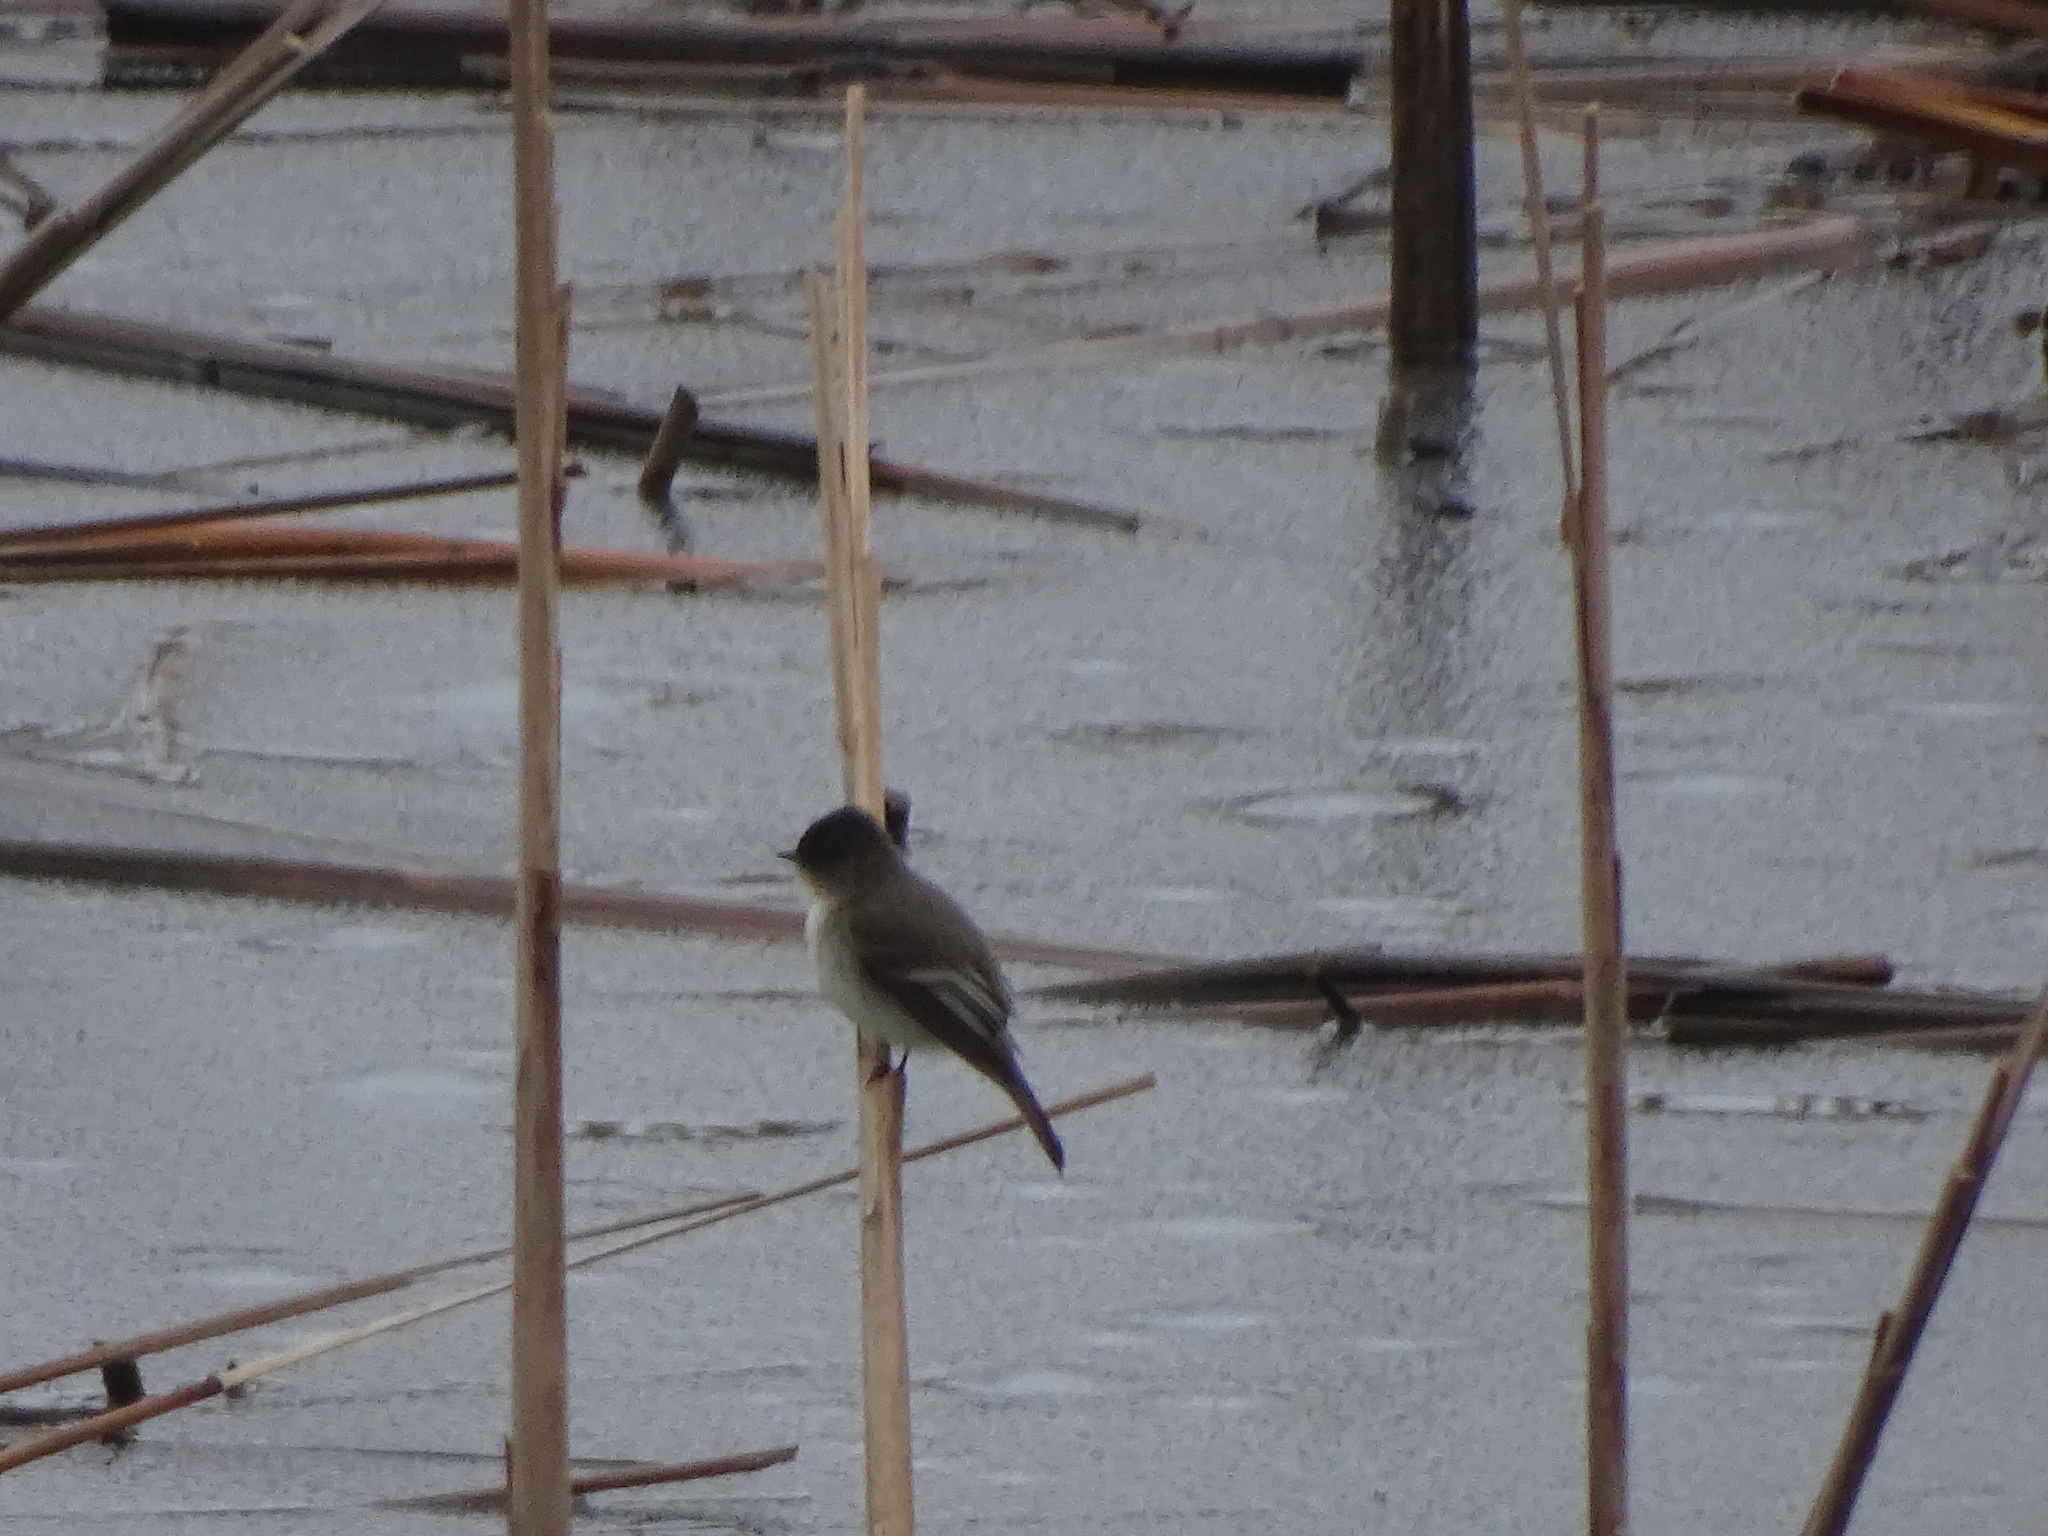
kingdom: Animalia
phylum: Chordata
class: Aves
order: Passeriformes
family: Tyrannidae
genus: Sayornis
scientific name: Sayornis phoebe
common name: Eastern phoebe
